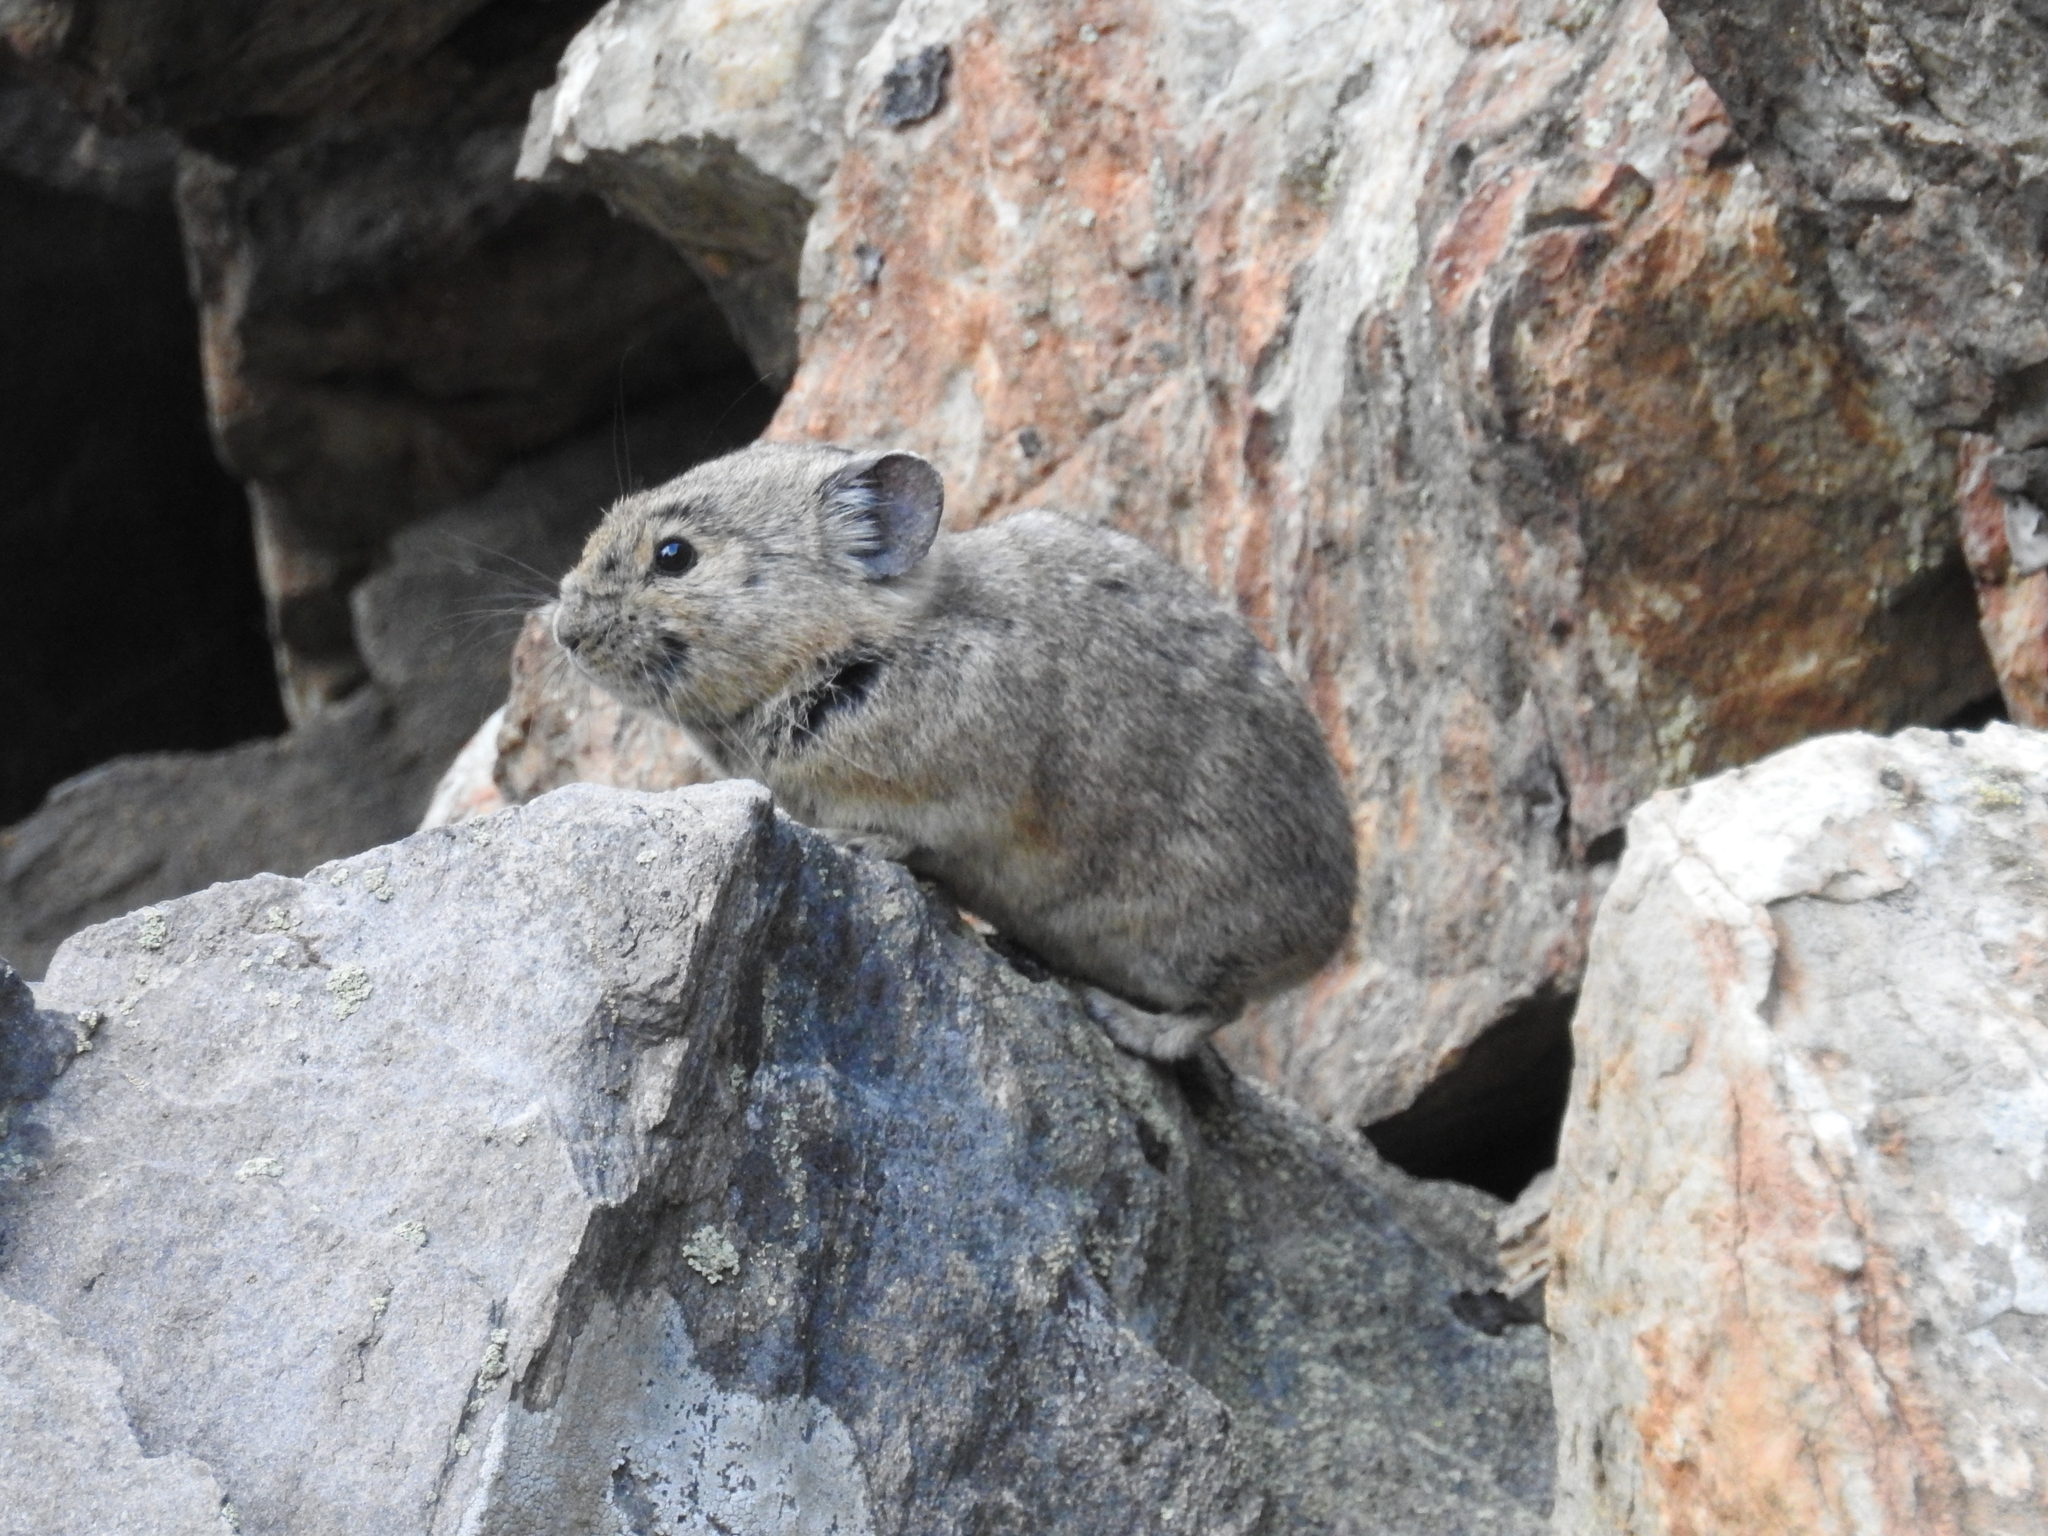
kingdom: Animalia
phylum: Chordata
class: Mammalia
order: Lagomorpha
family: Ochotonidae
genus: Ochotona
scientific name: Ochotona princeps
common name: American pika
